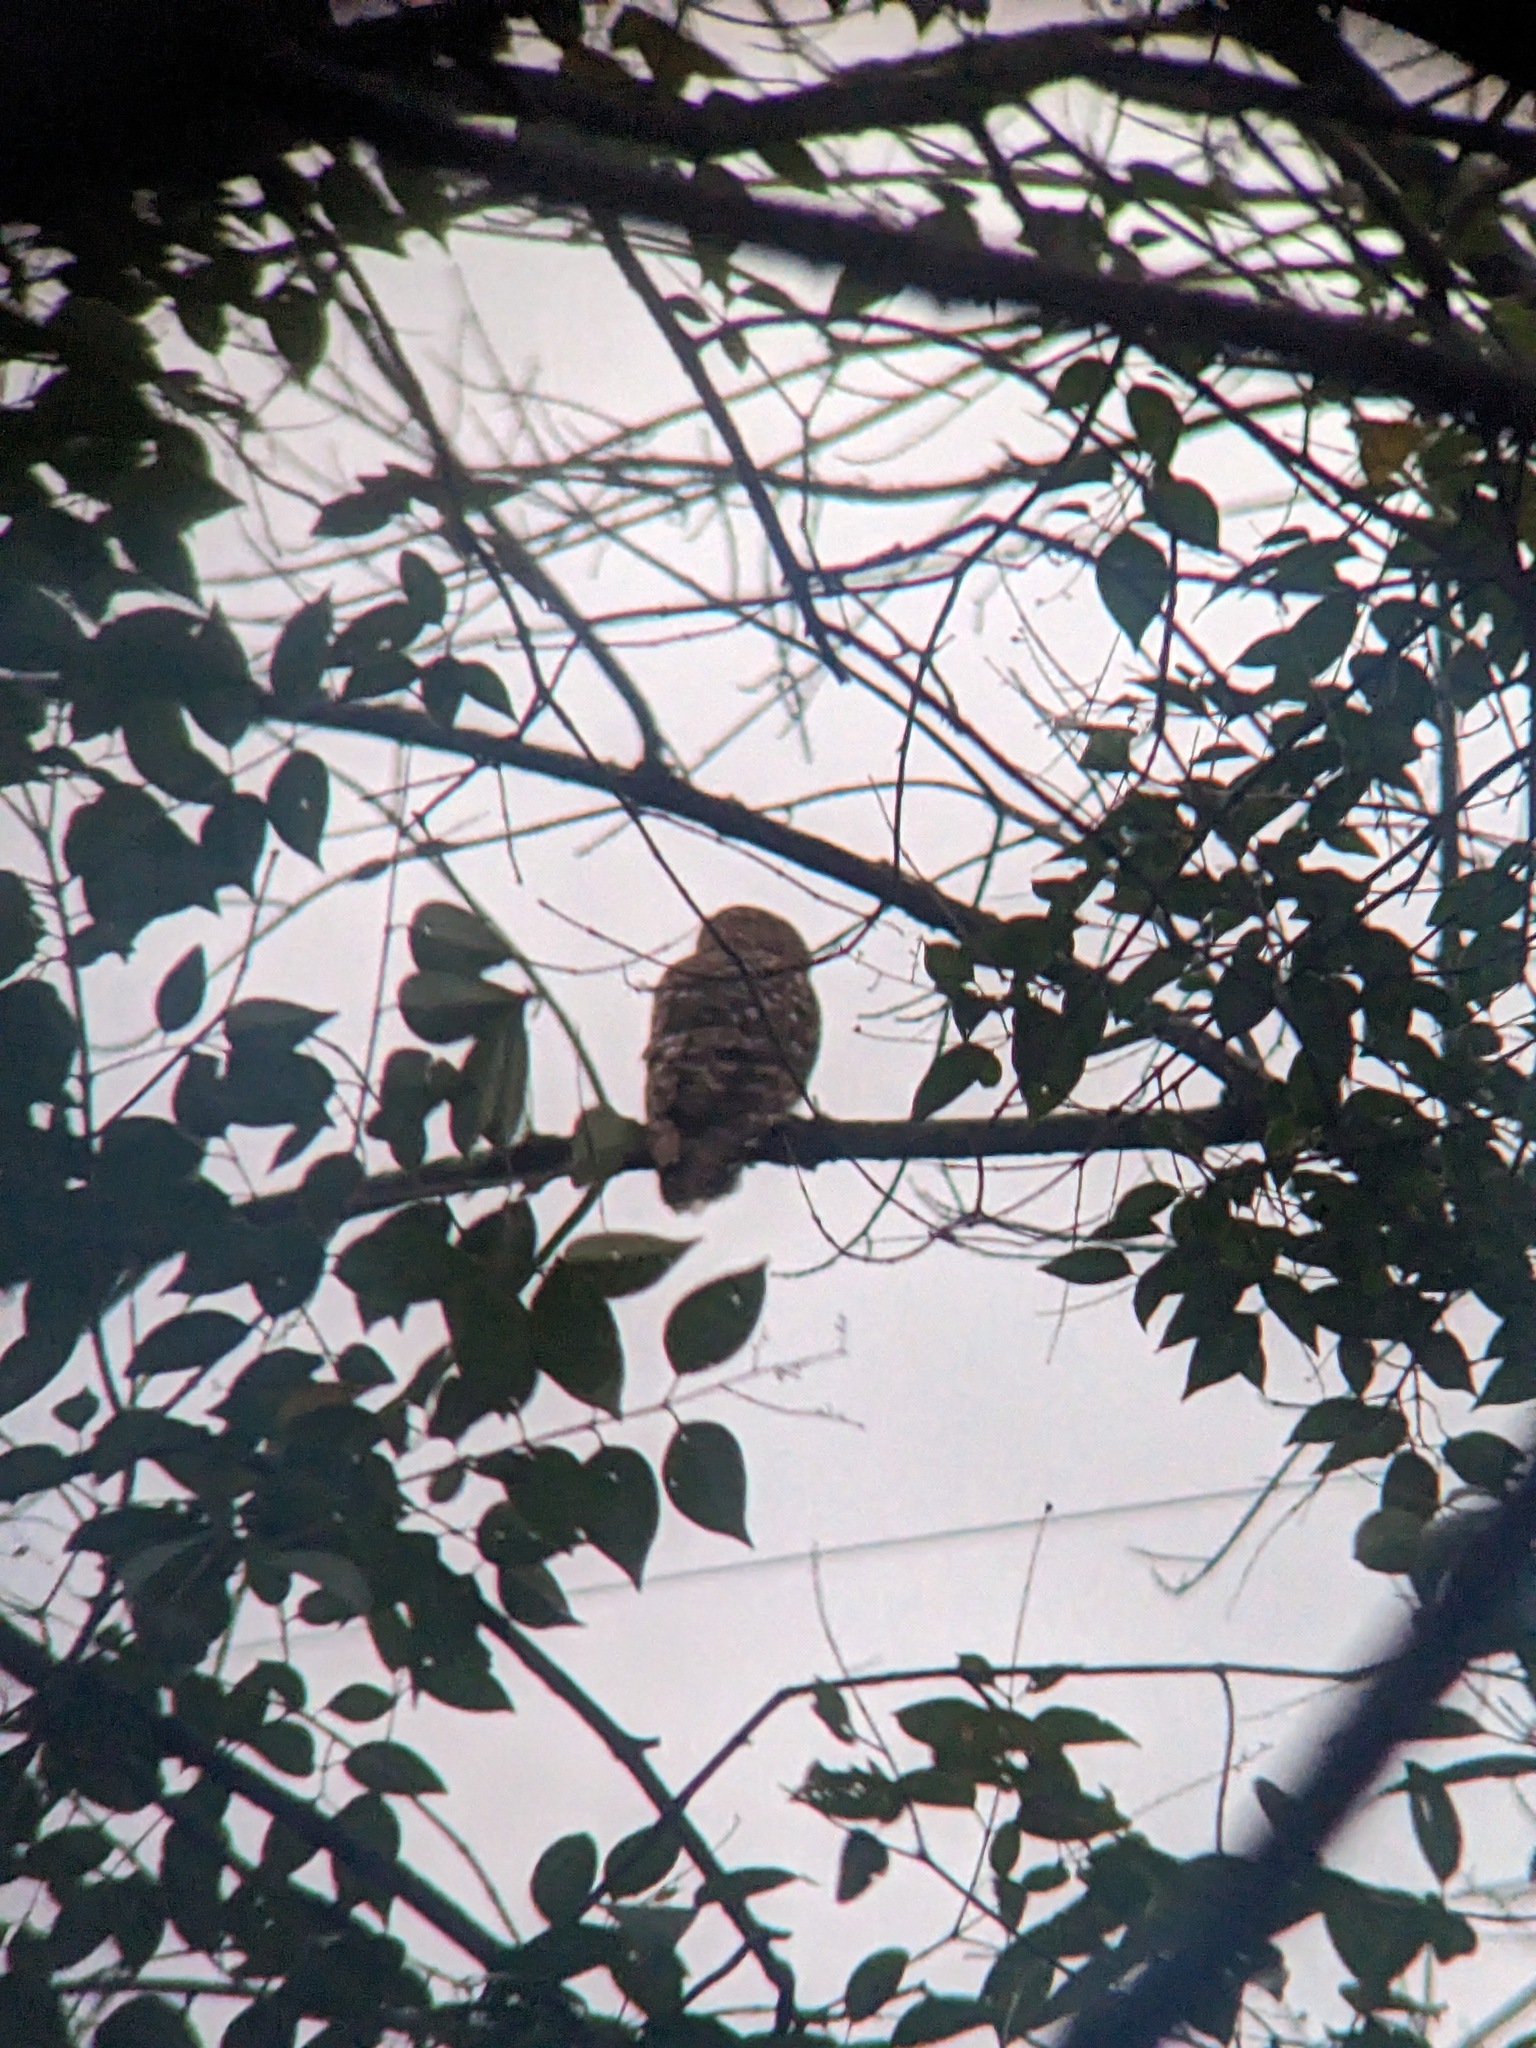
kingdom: Animalia
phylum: Chordata
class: Aves
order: Strigiformes
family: Strigidae
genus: Strix
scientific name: Strix varia
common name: Barred owl
